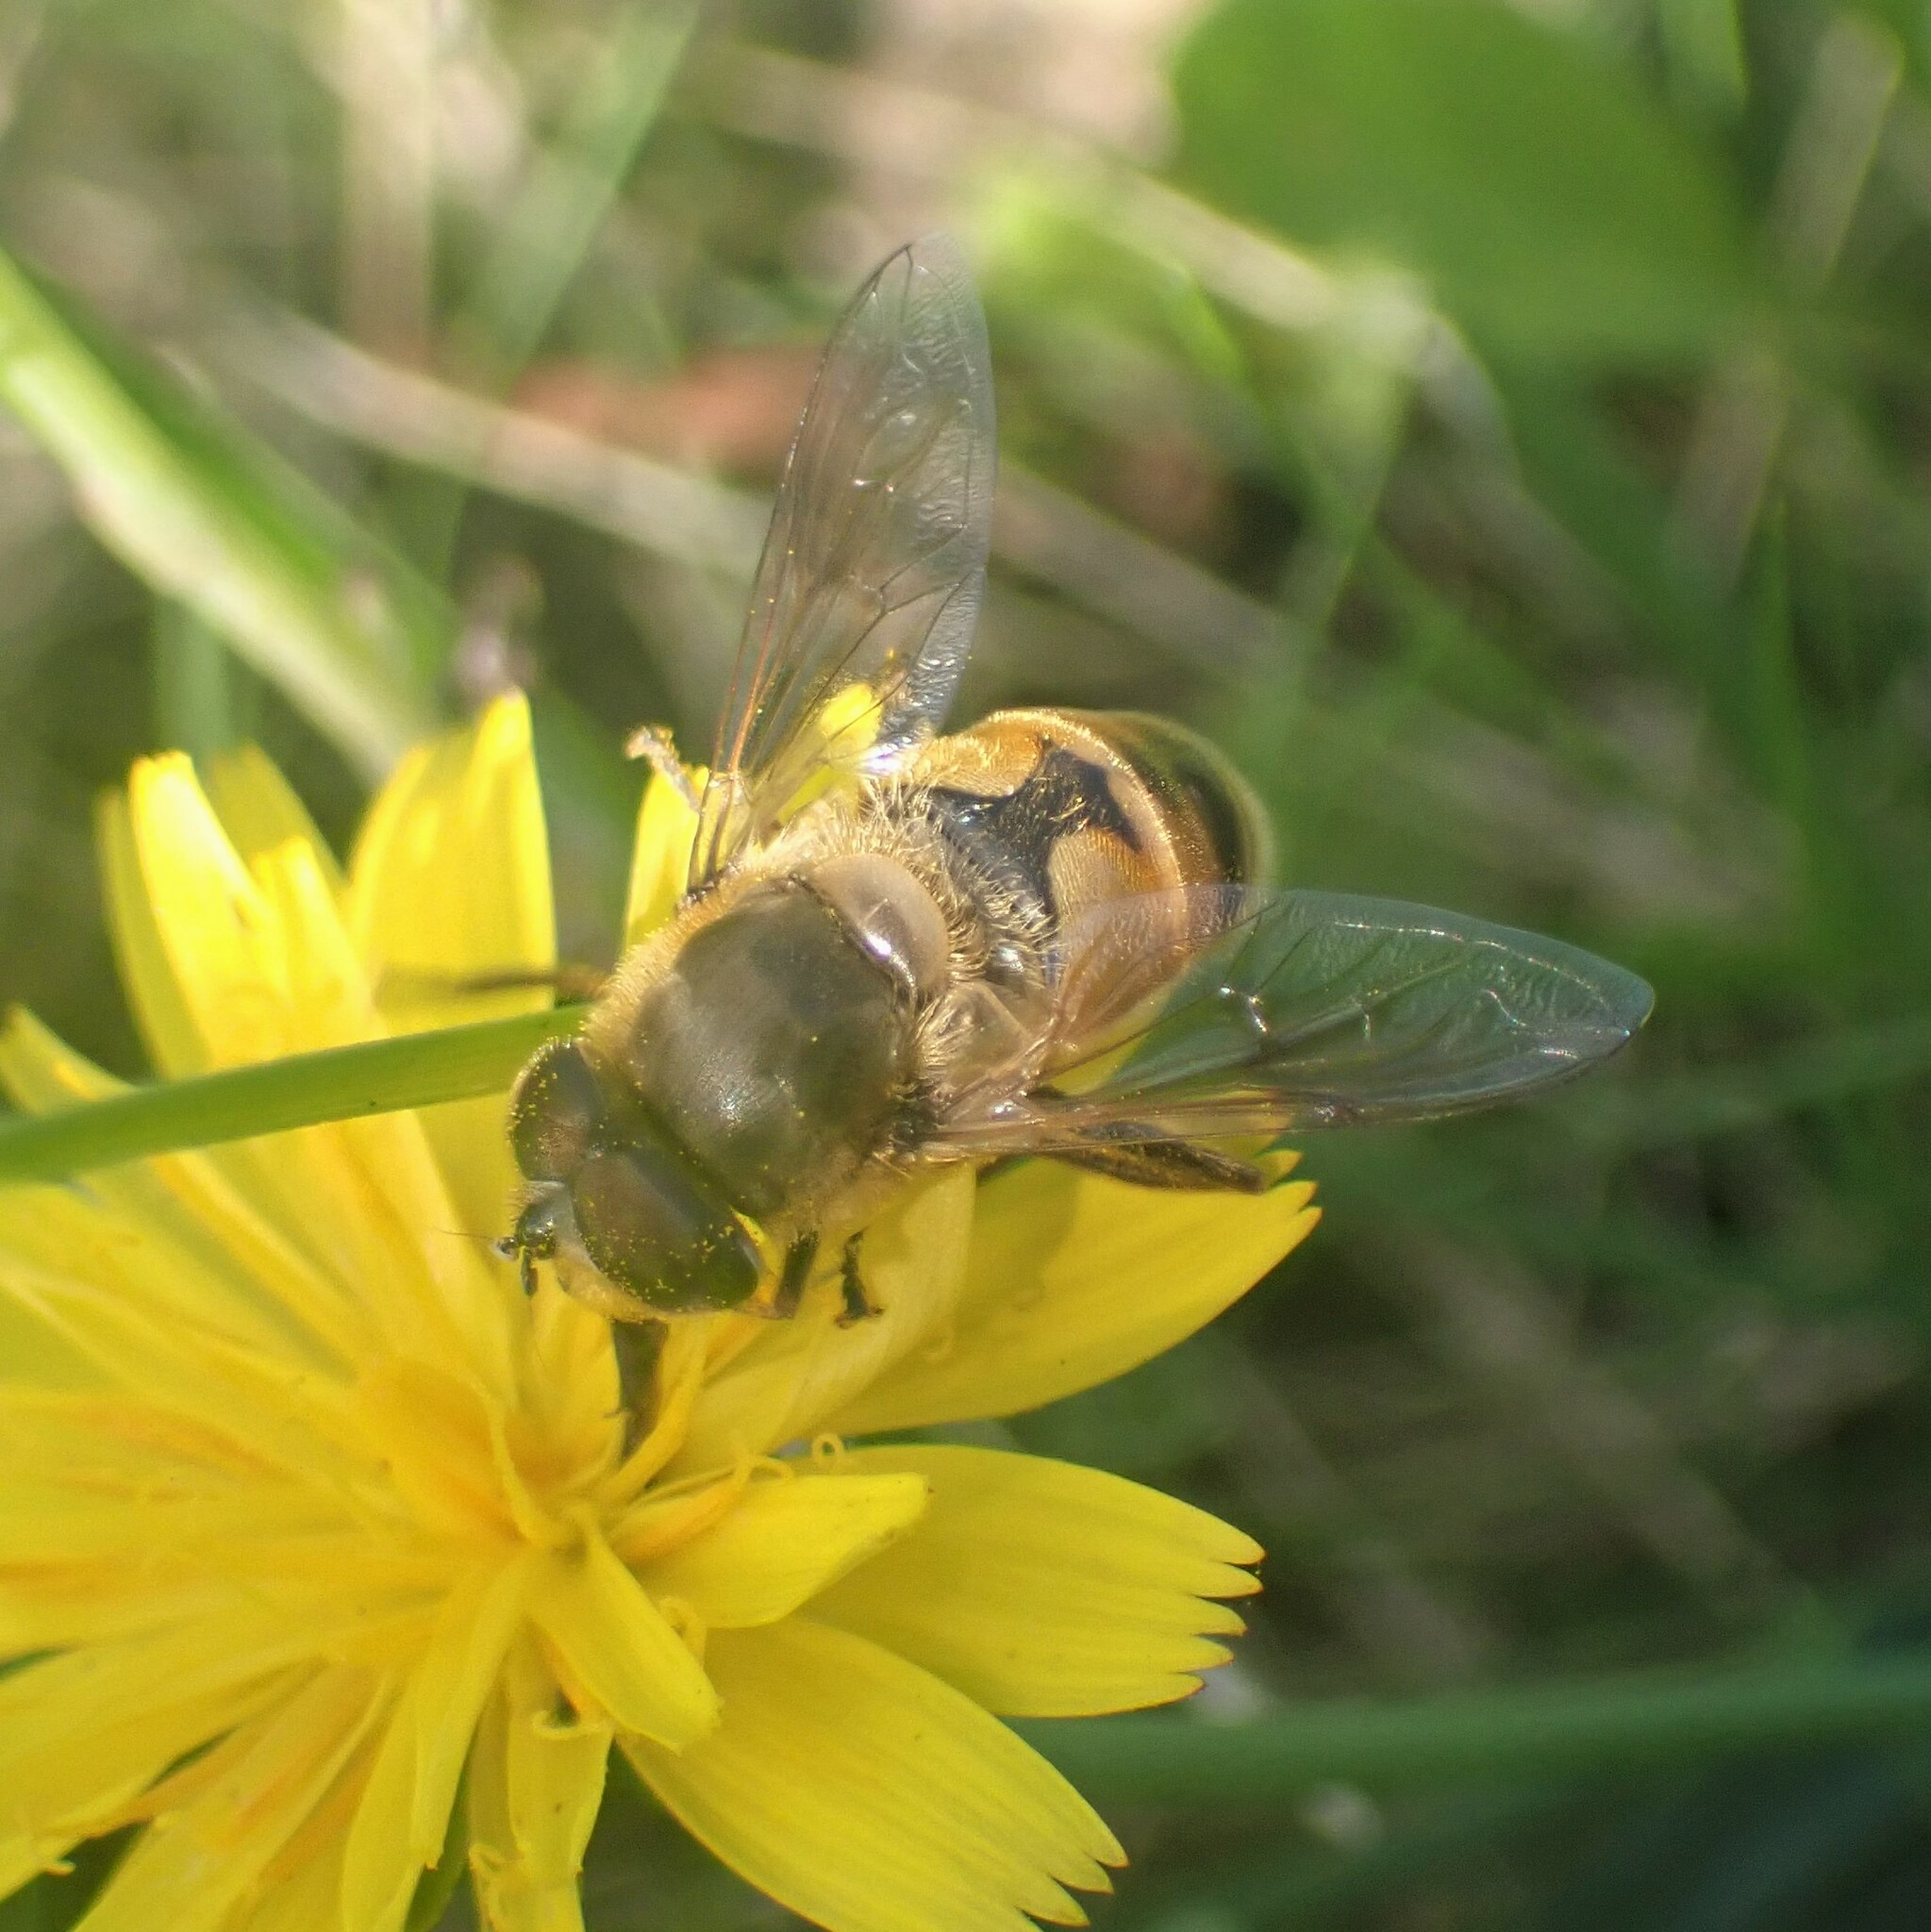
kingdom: Animalia
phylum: Arthropoda
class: Insecta
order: Diptera
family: Syrphidae
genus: Eristalis
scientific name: Eristalis tenax
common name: Drone fly
